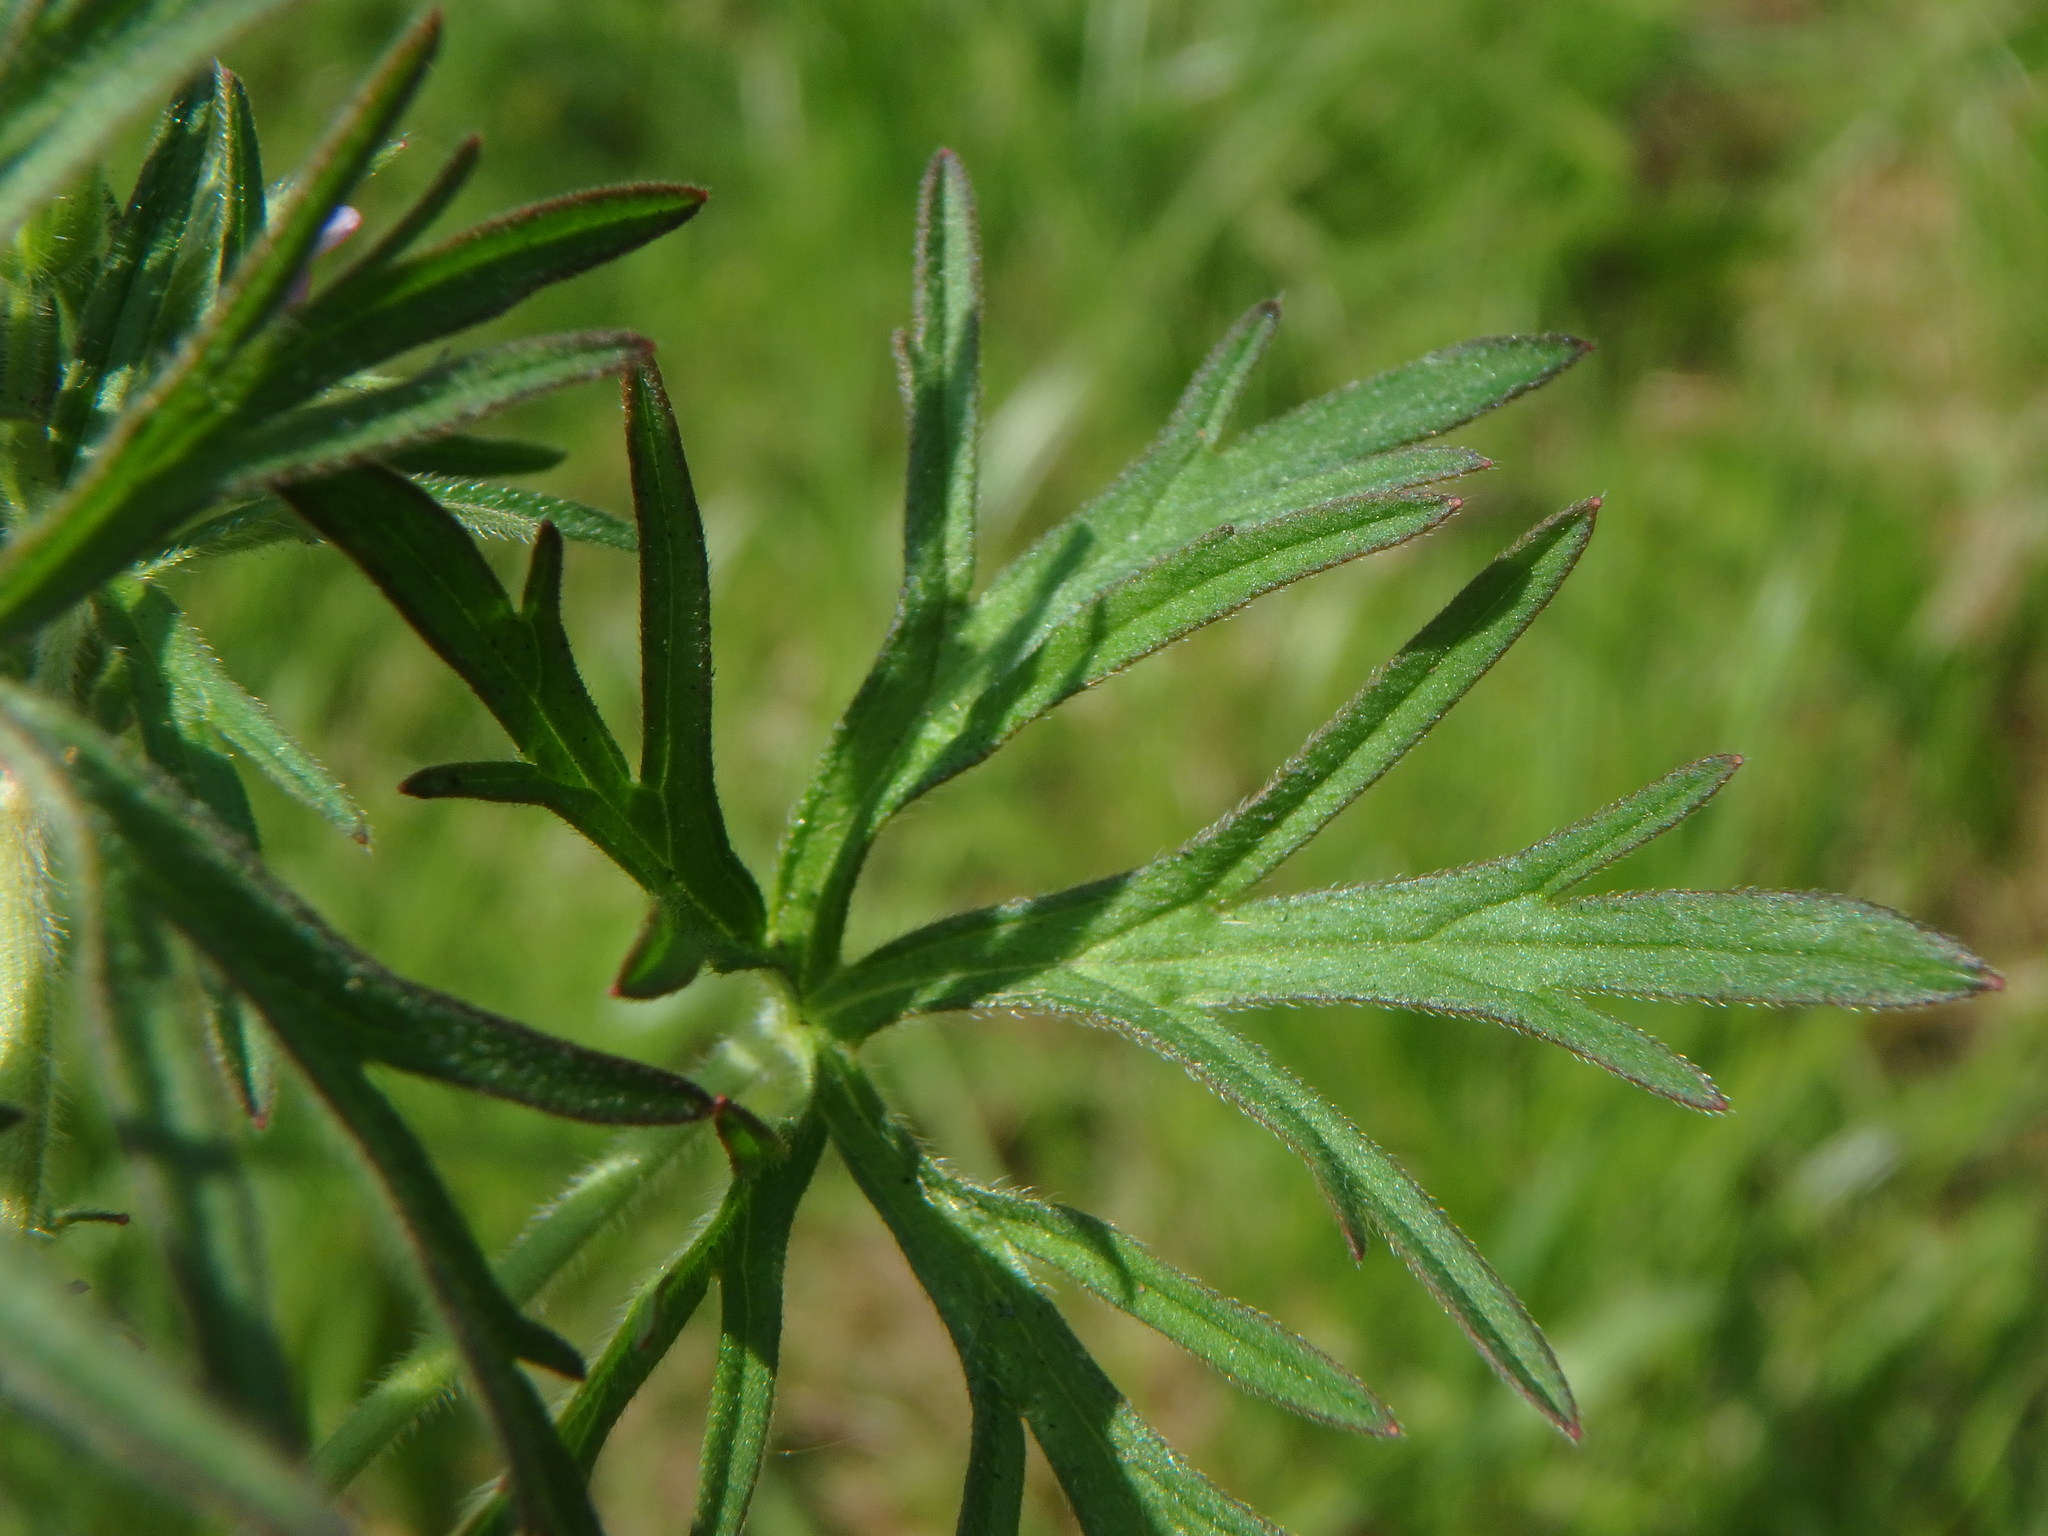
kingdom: Plantae
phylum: Tracheophyta
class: Magnoliopsida
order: Geraniales
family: Geraniaceae
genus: Geranium
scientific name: Geranium dissectum
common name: Cut-leaved crane's-bill
